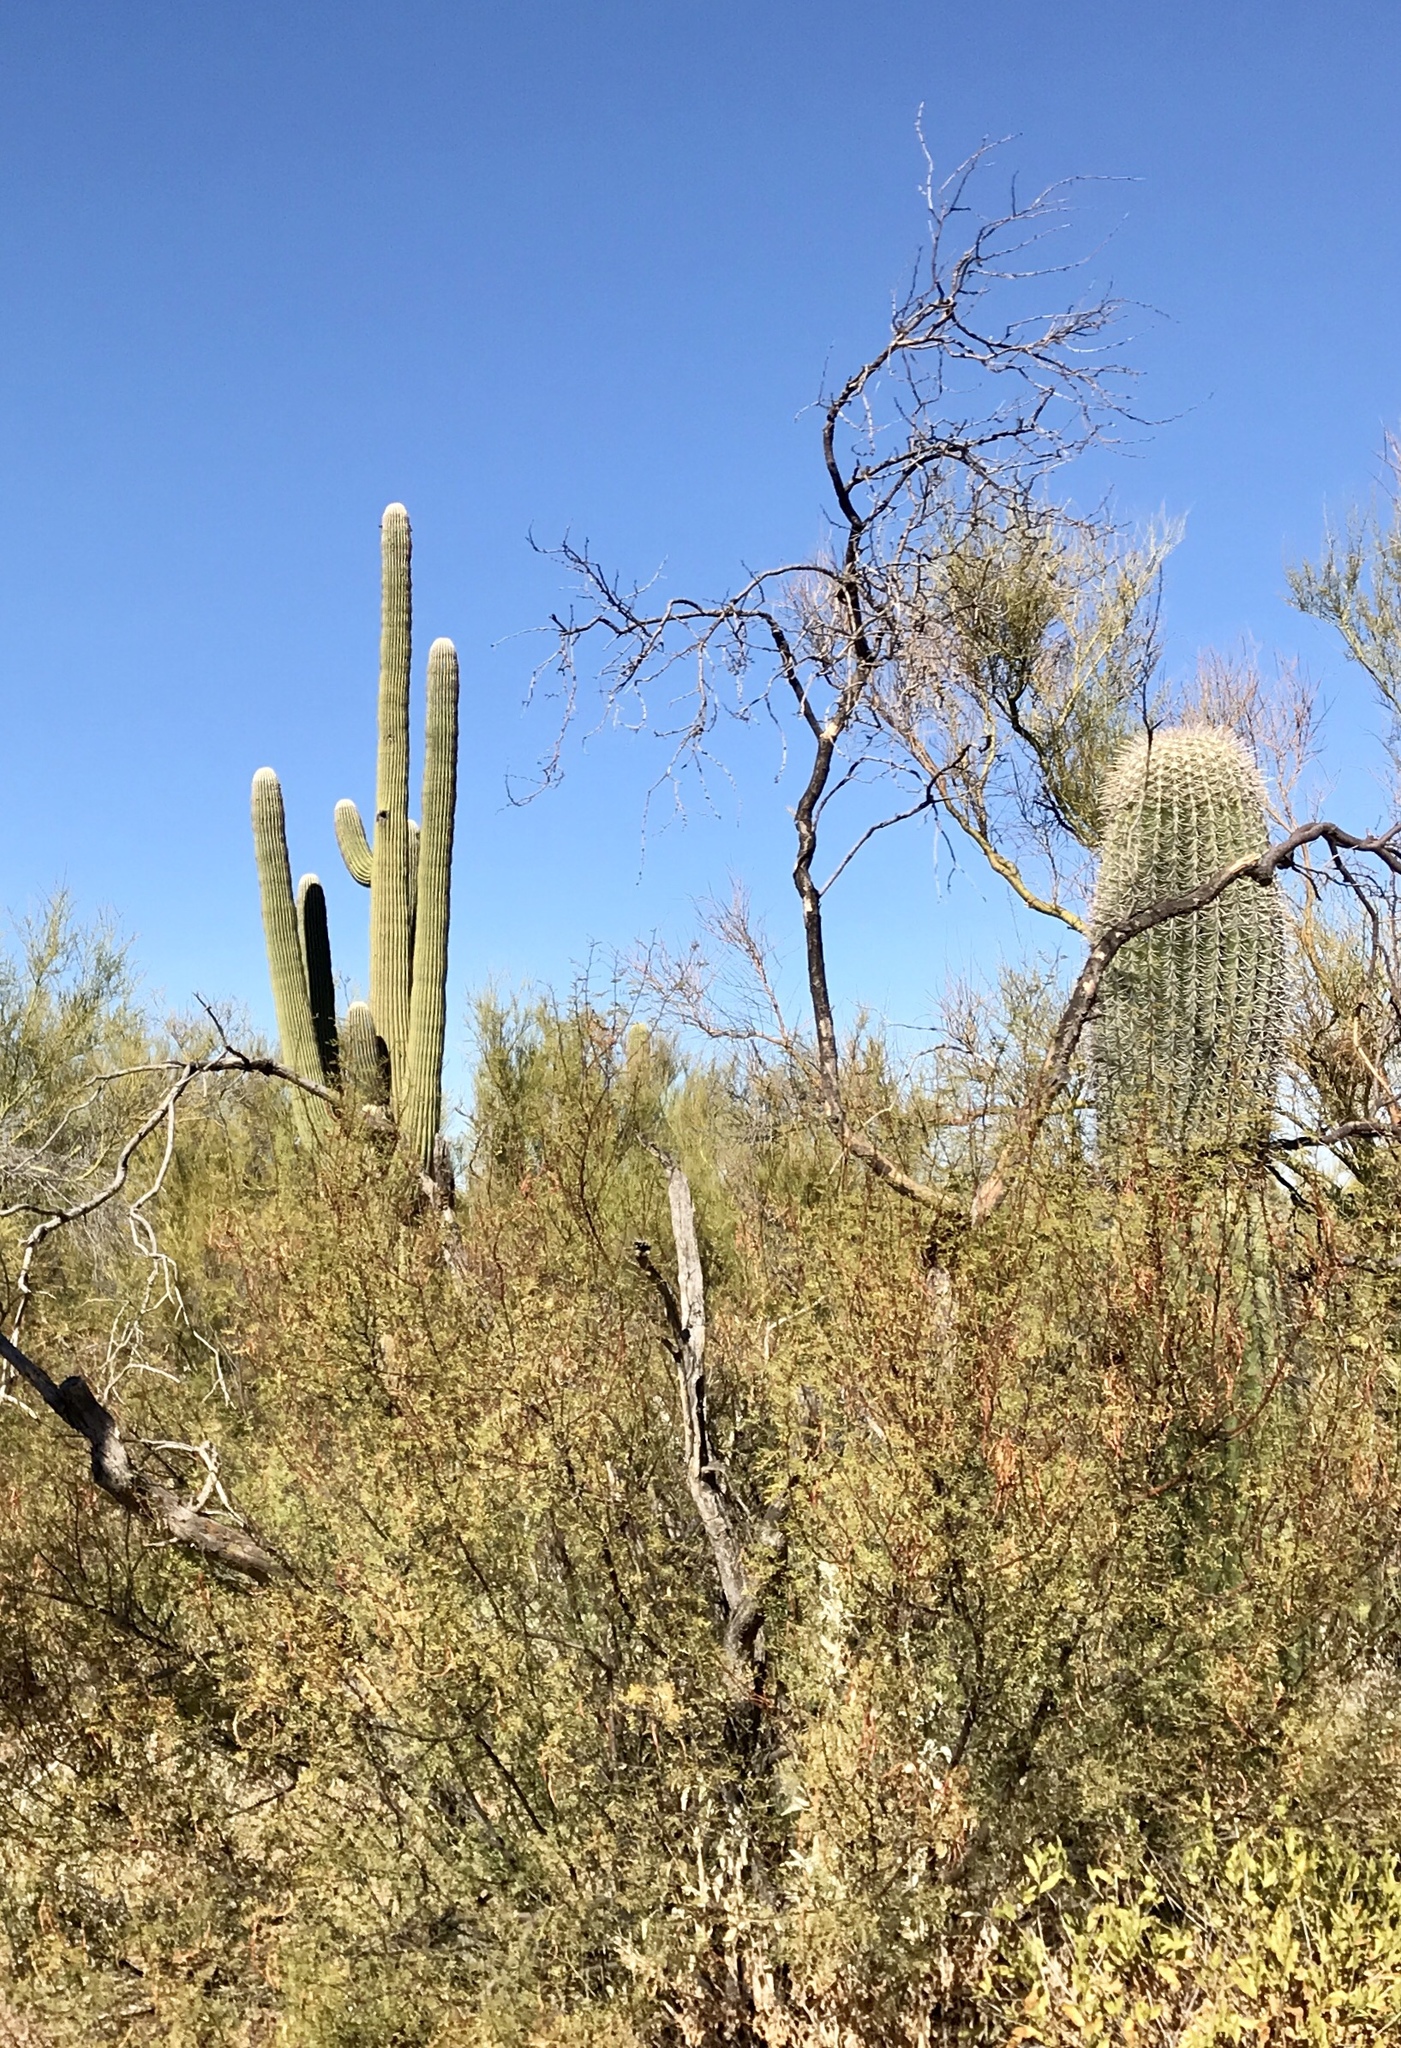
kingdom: Plantae
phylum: Tracheophyta
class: Magnoliopsida
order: Caryophyllales
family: Cactaceae
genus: Carnegiea
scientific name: Carnegiea gigantea
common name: Saguaro
